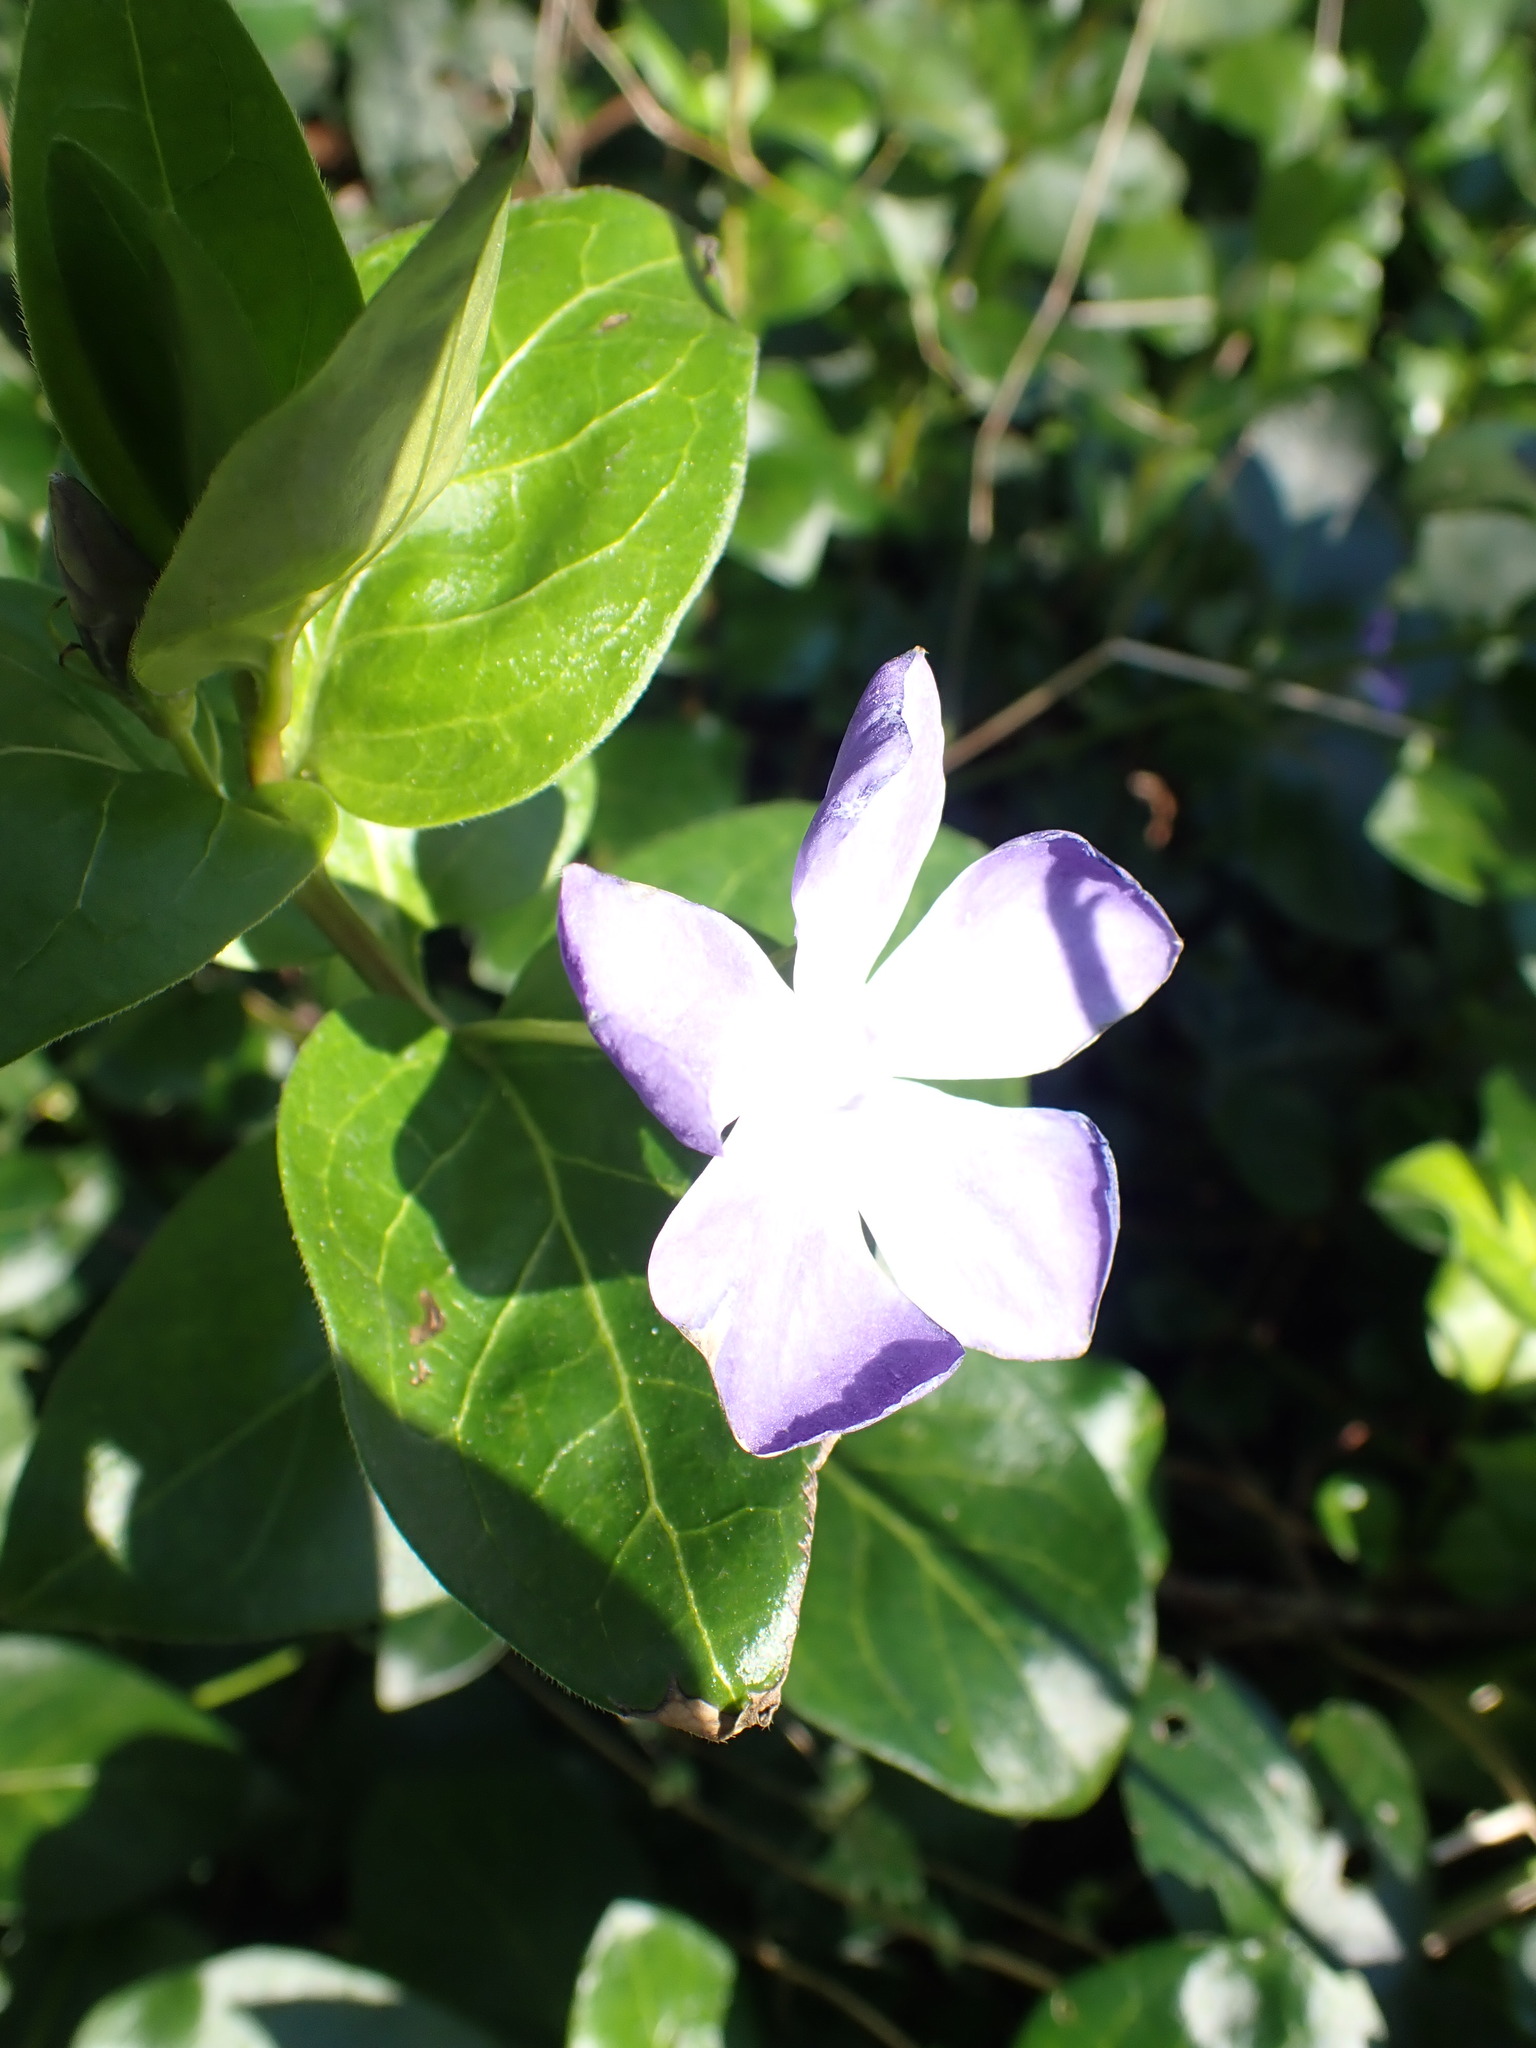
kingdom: Plantae
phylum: Tracheophyta
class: Magnoliopsida
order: Gentianales
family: Apocynaceae
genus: Vinca
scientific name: Vinca major
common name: Greater periwinkle
